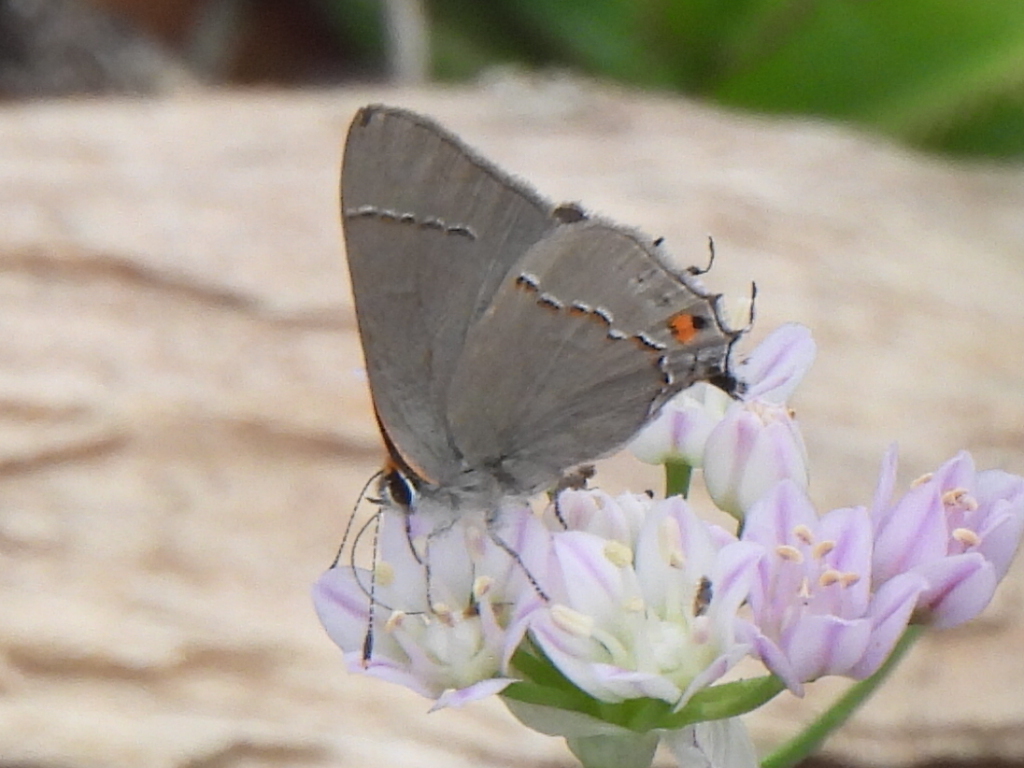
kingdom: Animalia
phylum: Arthropoda
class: Insecta
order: Lepidoptera
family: Lycaenidae
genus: Strymon
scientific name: Strymon melinus
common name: Gray hairstreak
